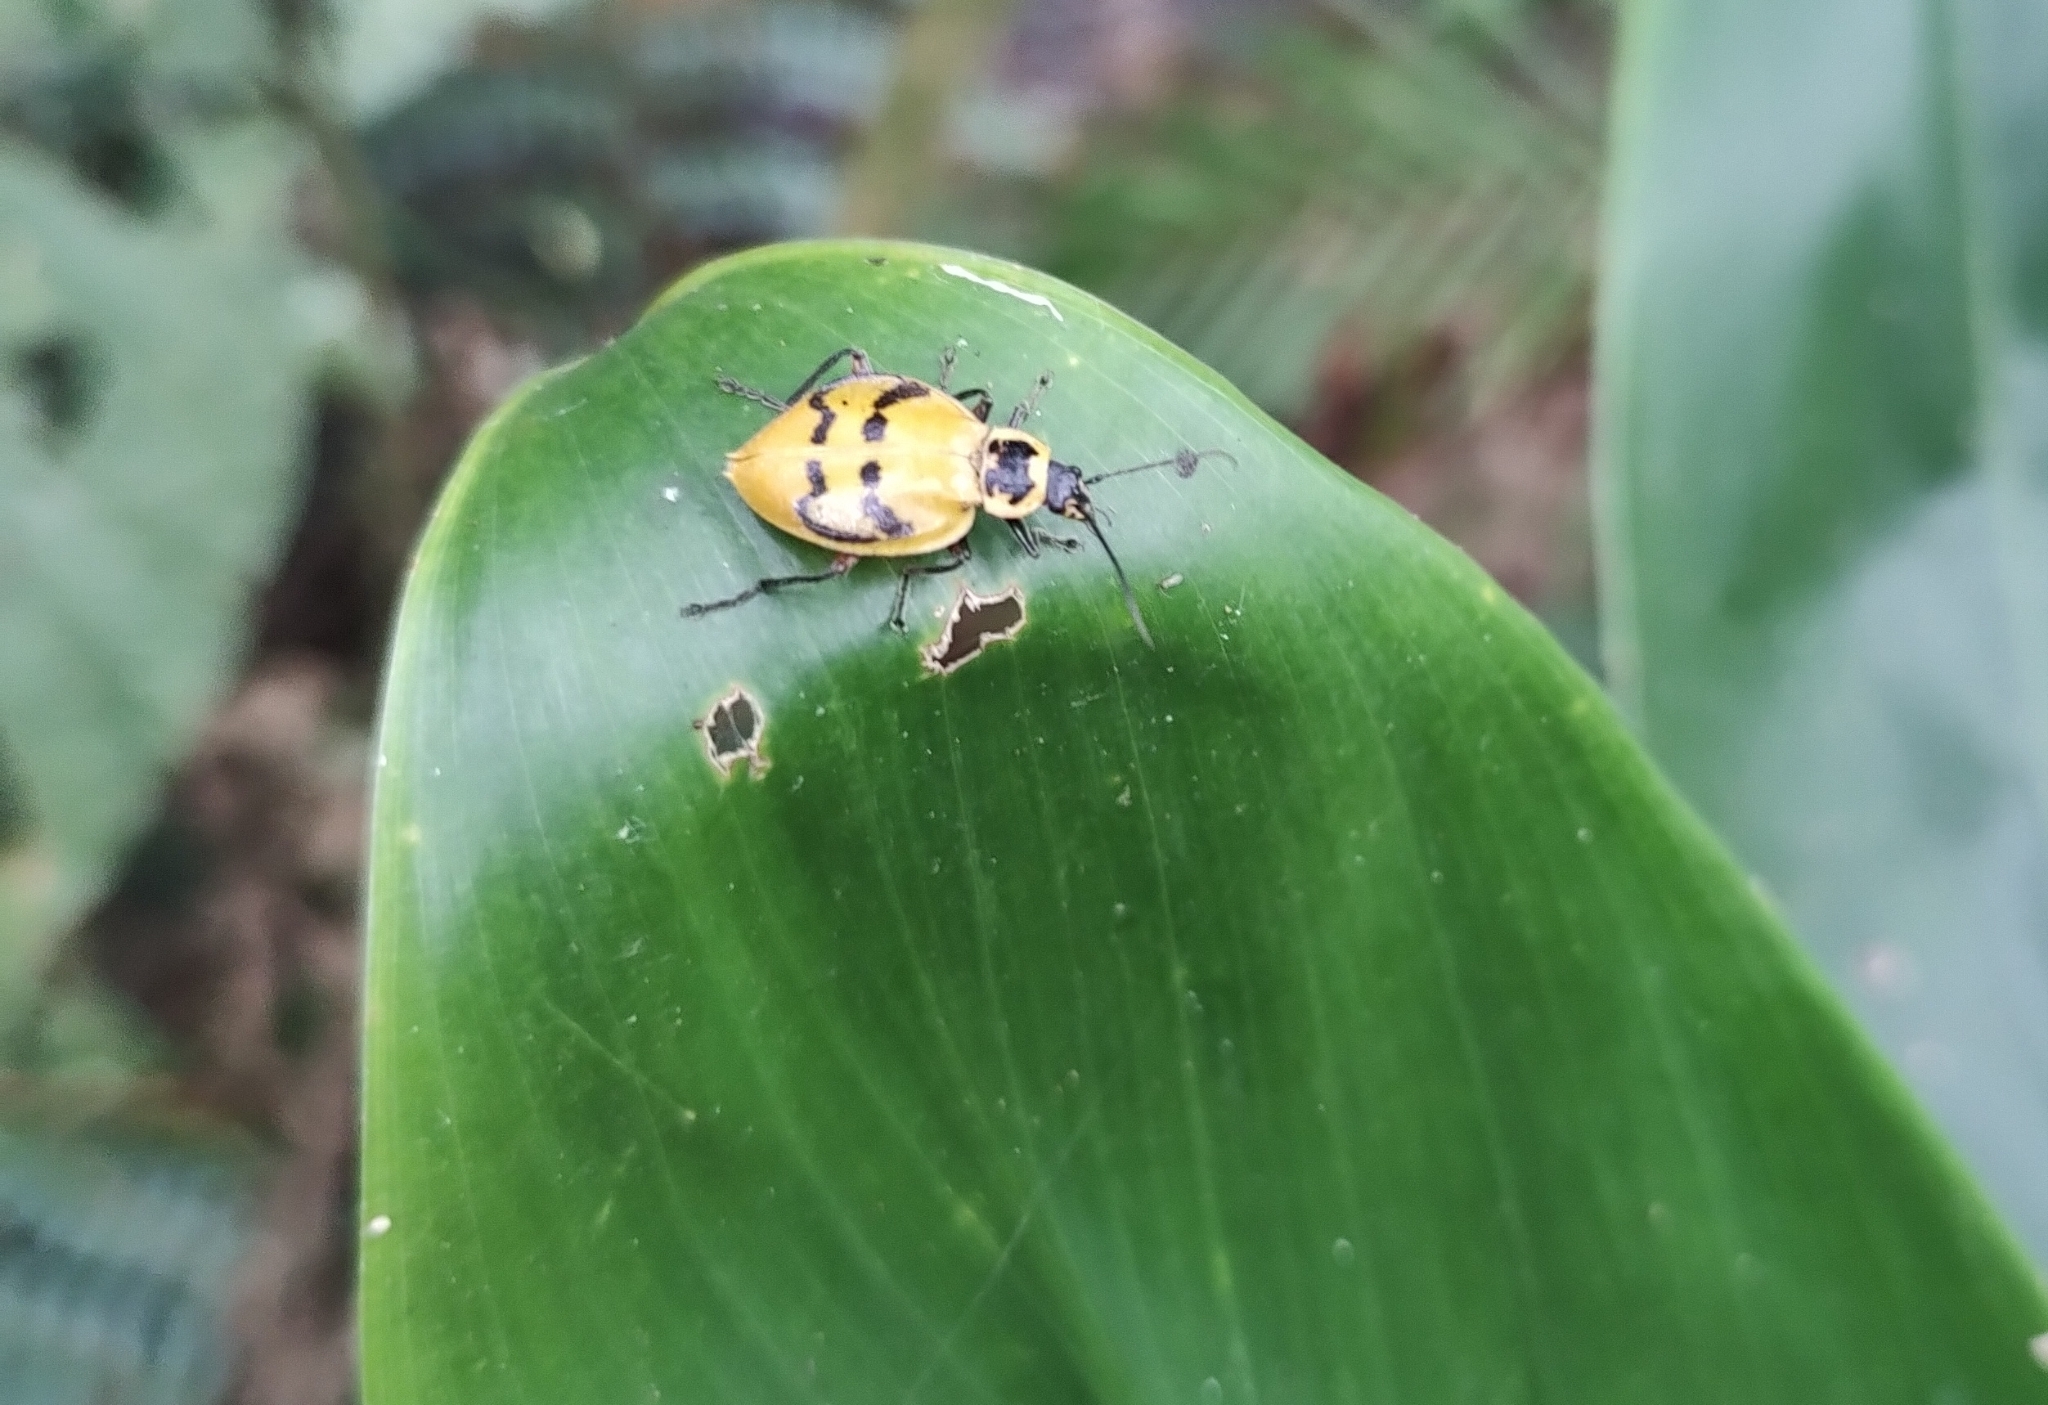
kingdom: Animalia
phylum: Arthropoda
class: Insecta
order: Coleoptera
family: Cantharidae
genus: Chauliognathus
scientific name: Chauliognathus
